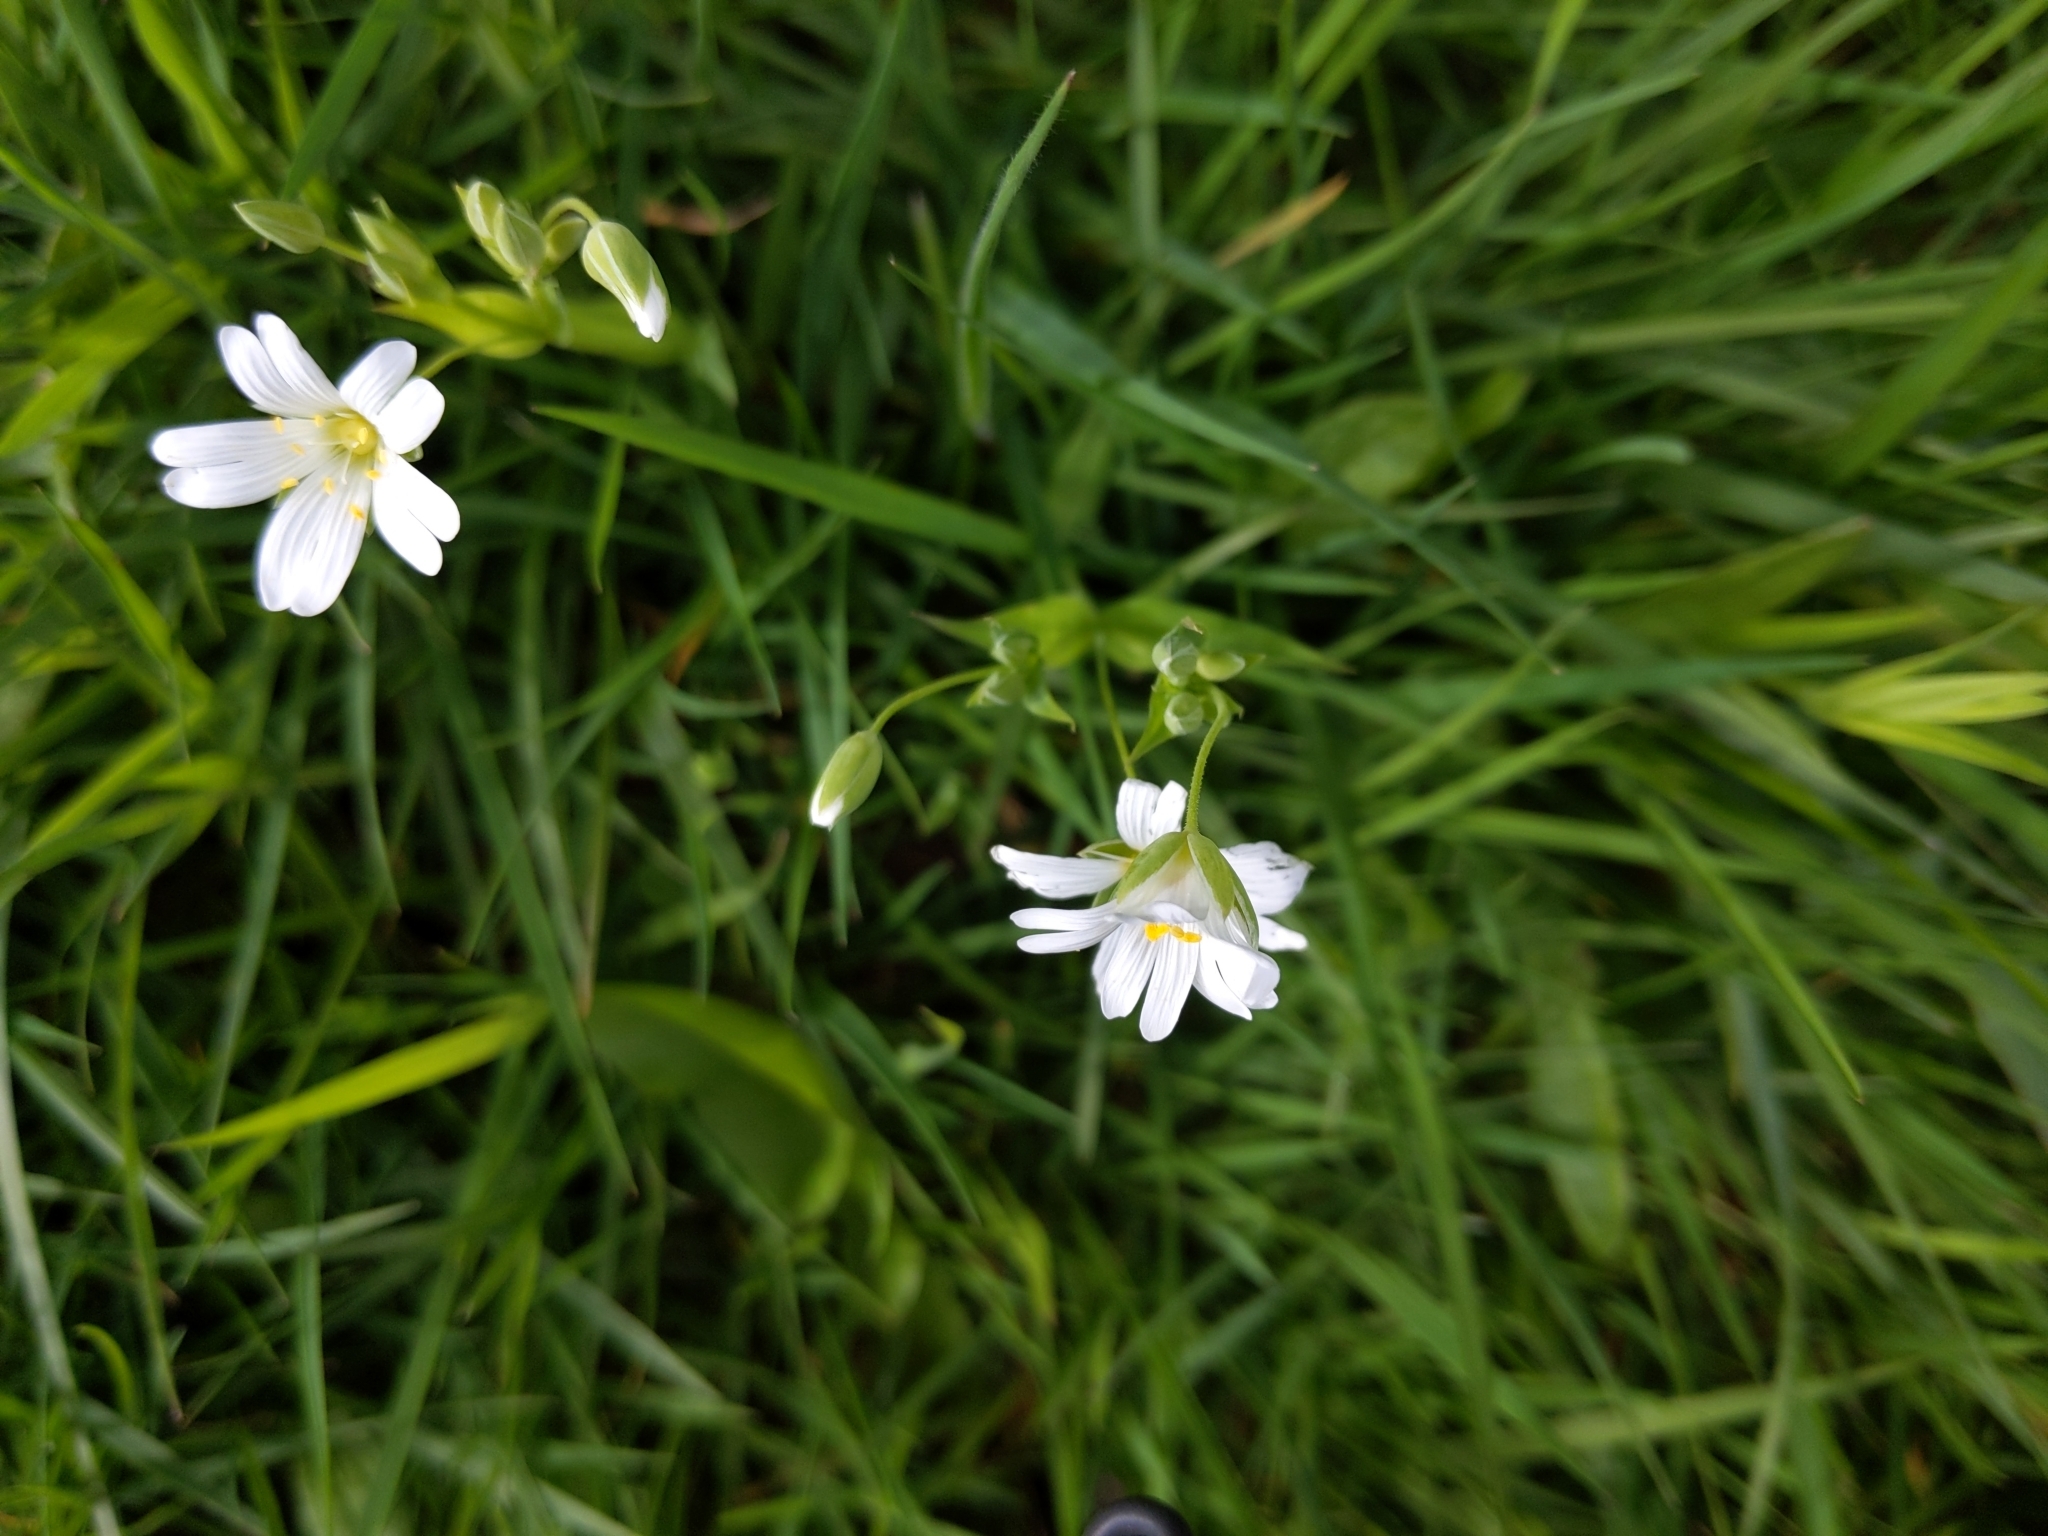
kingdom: Plantae
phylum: Tracheophyta
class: Magnoliopsida
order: Caryophyllales
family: Caryophyllaceae
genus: Rabelera
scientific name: Rabelera holostea
